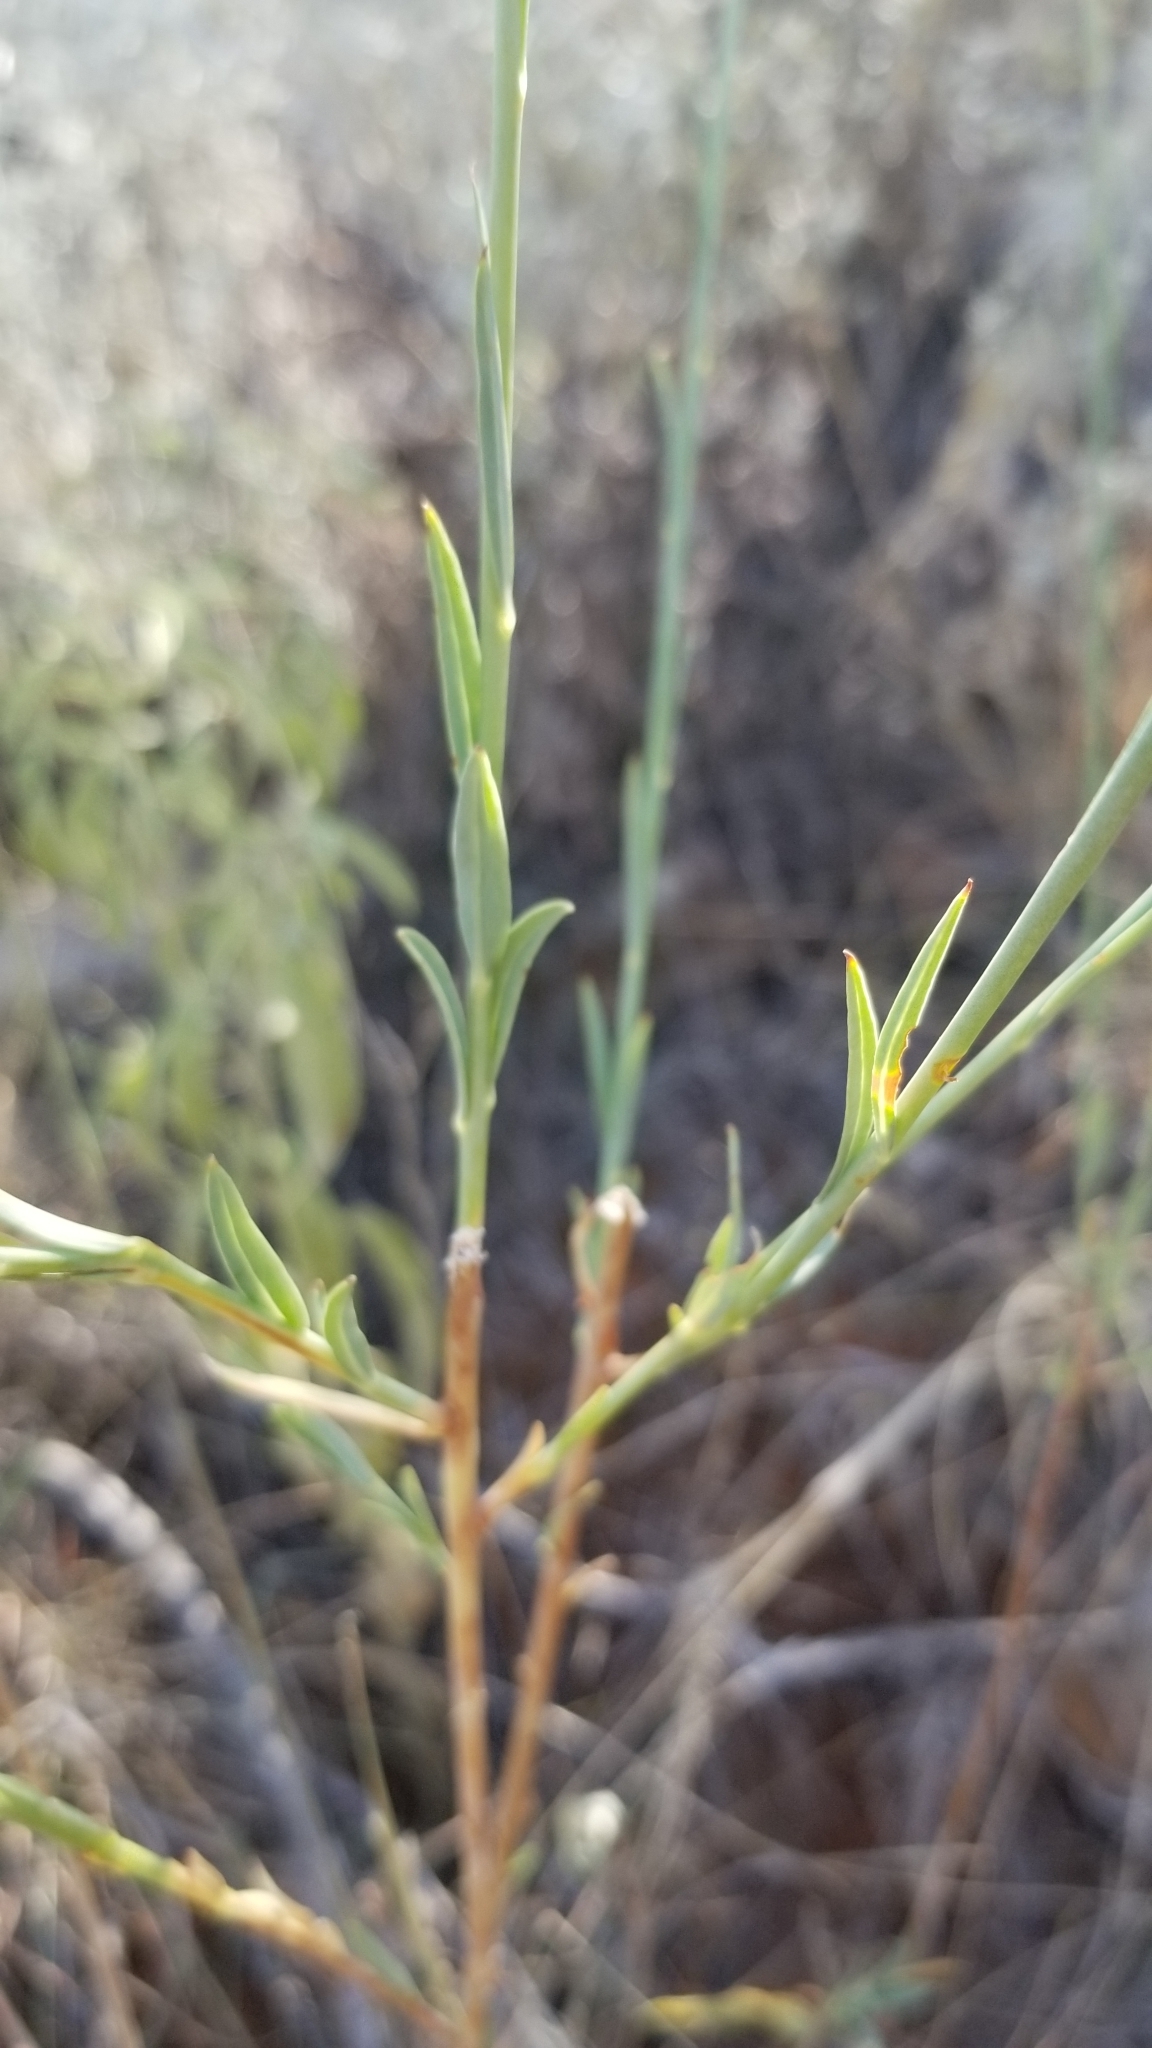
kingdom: Plantae
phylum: Tracheophyta
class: Magnoliopsida
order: Myrtales
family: Onagraceae
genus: Oenothera
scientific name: Oenothera glaucifolia
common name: False gaura
